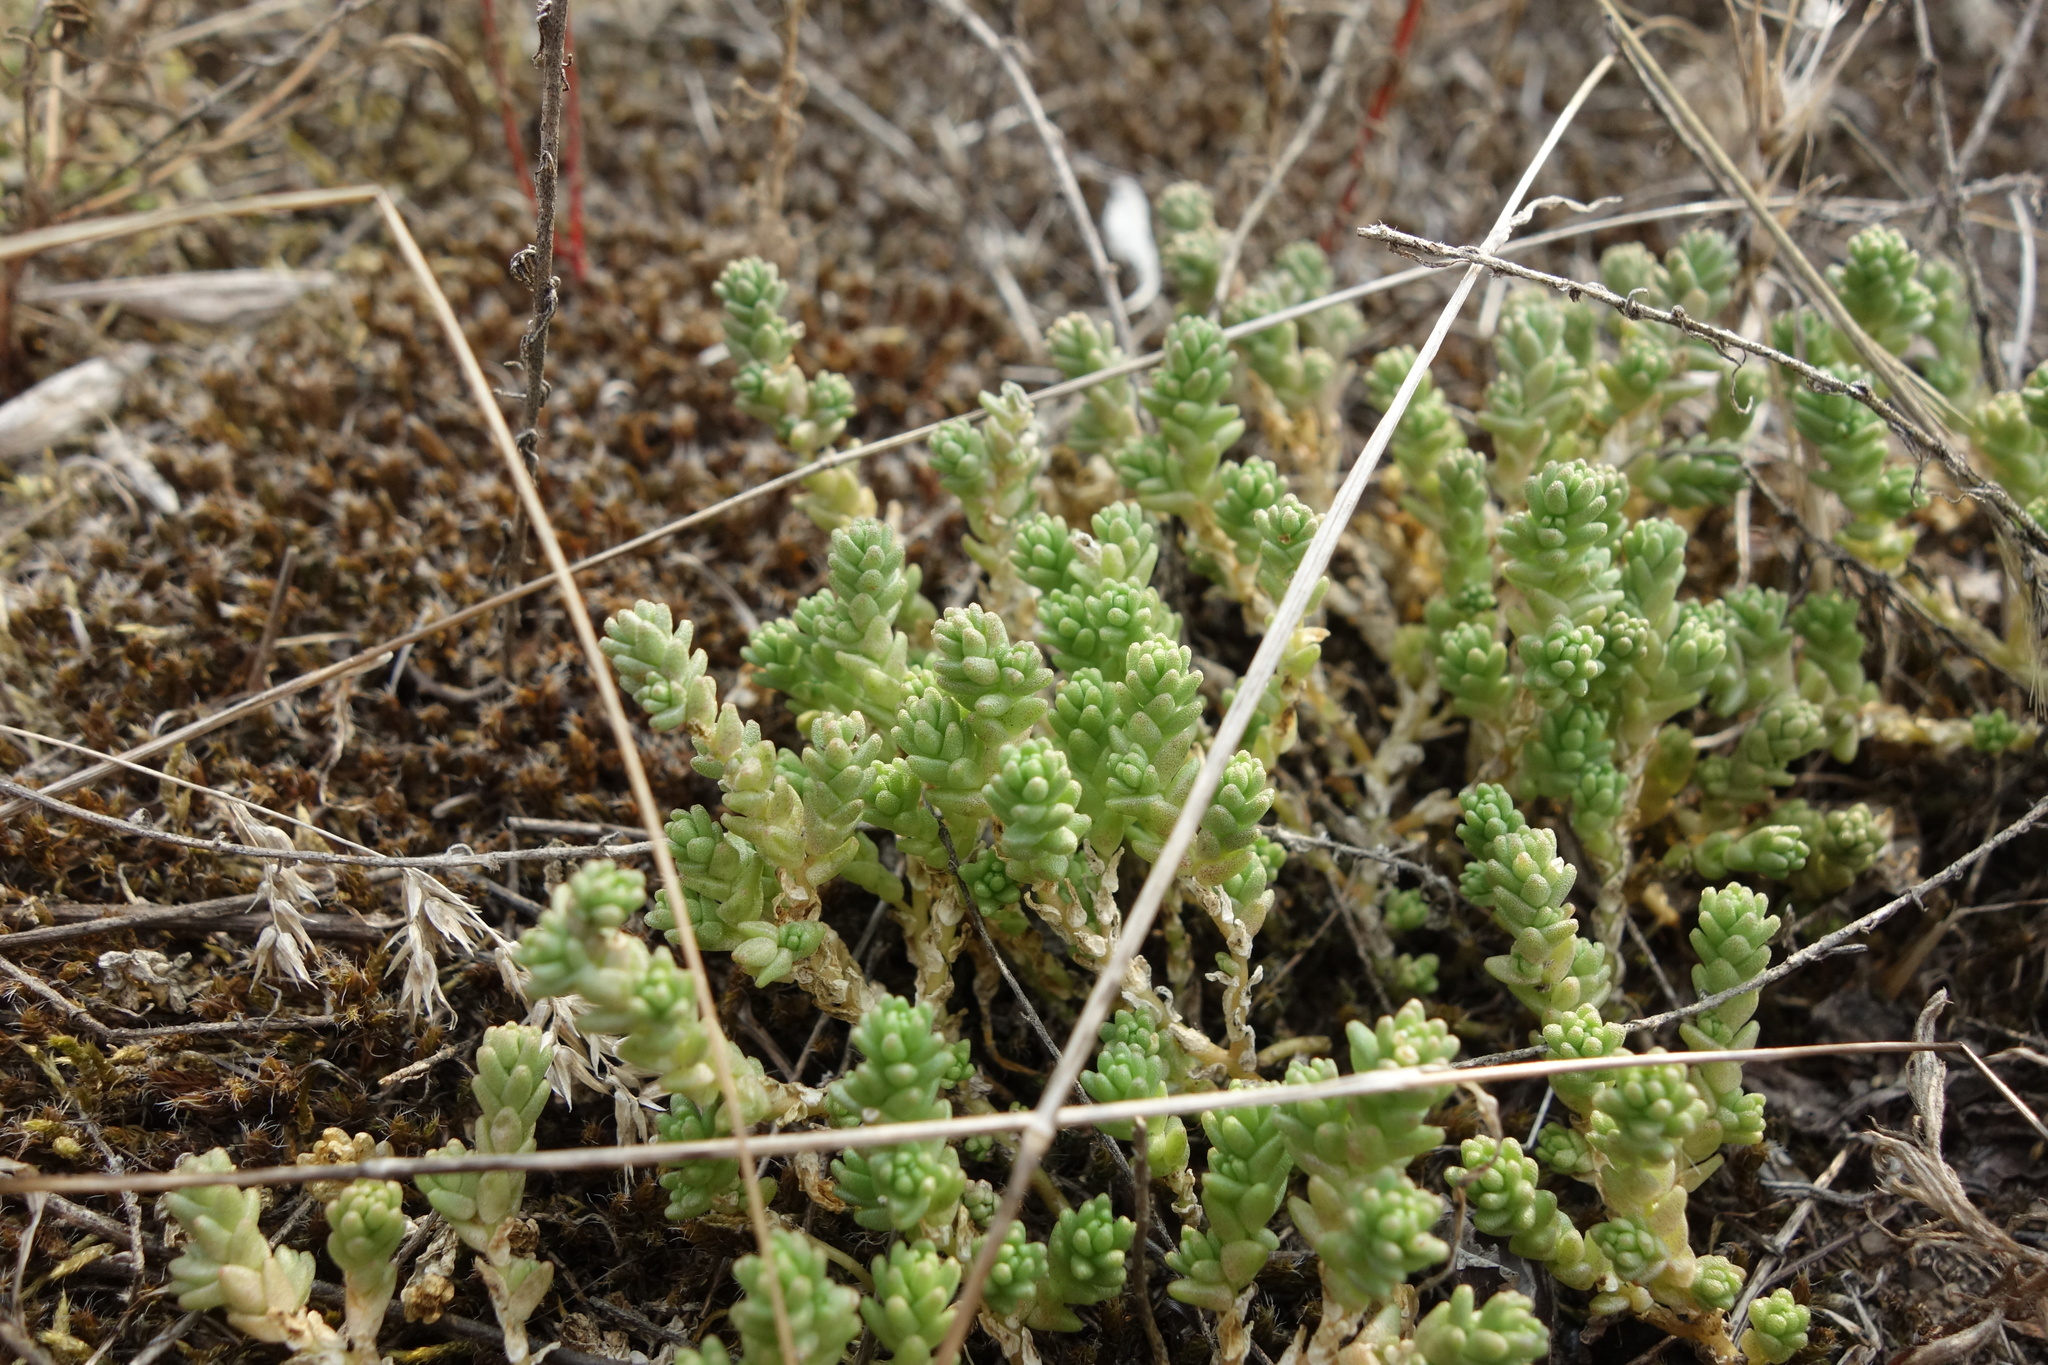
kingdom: Plantae
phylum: Tracheophyta
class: Magnoliopsida
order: Saxifragales
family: Crassulaceae
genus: Sedum
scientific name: Sedum acre
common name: Biting stonecrop
